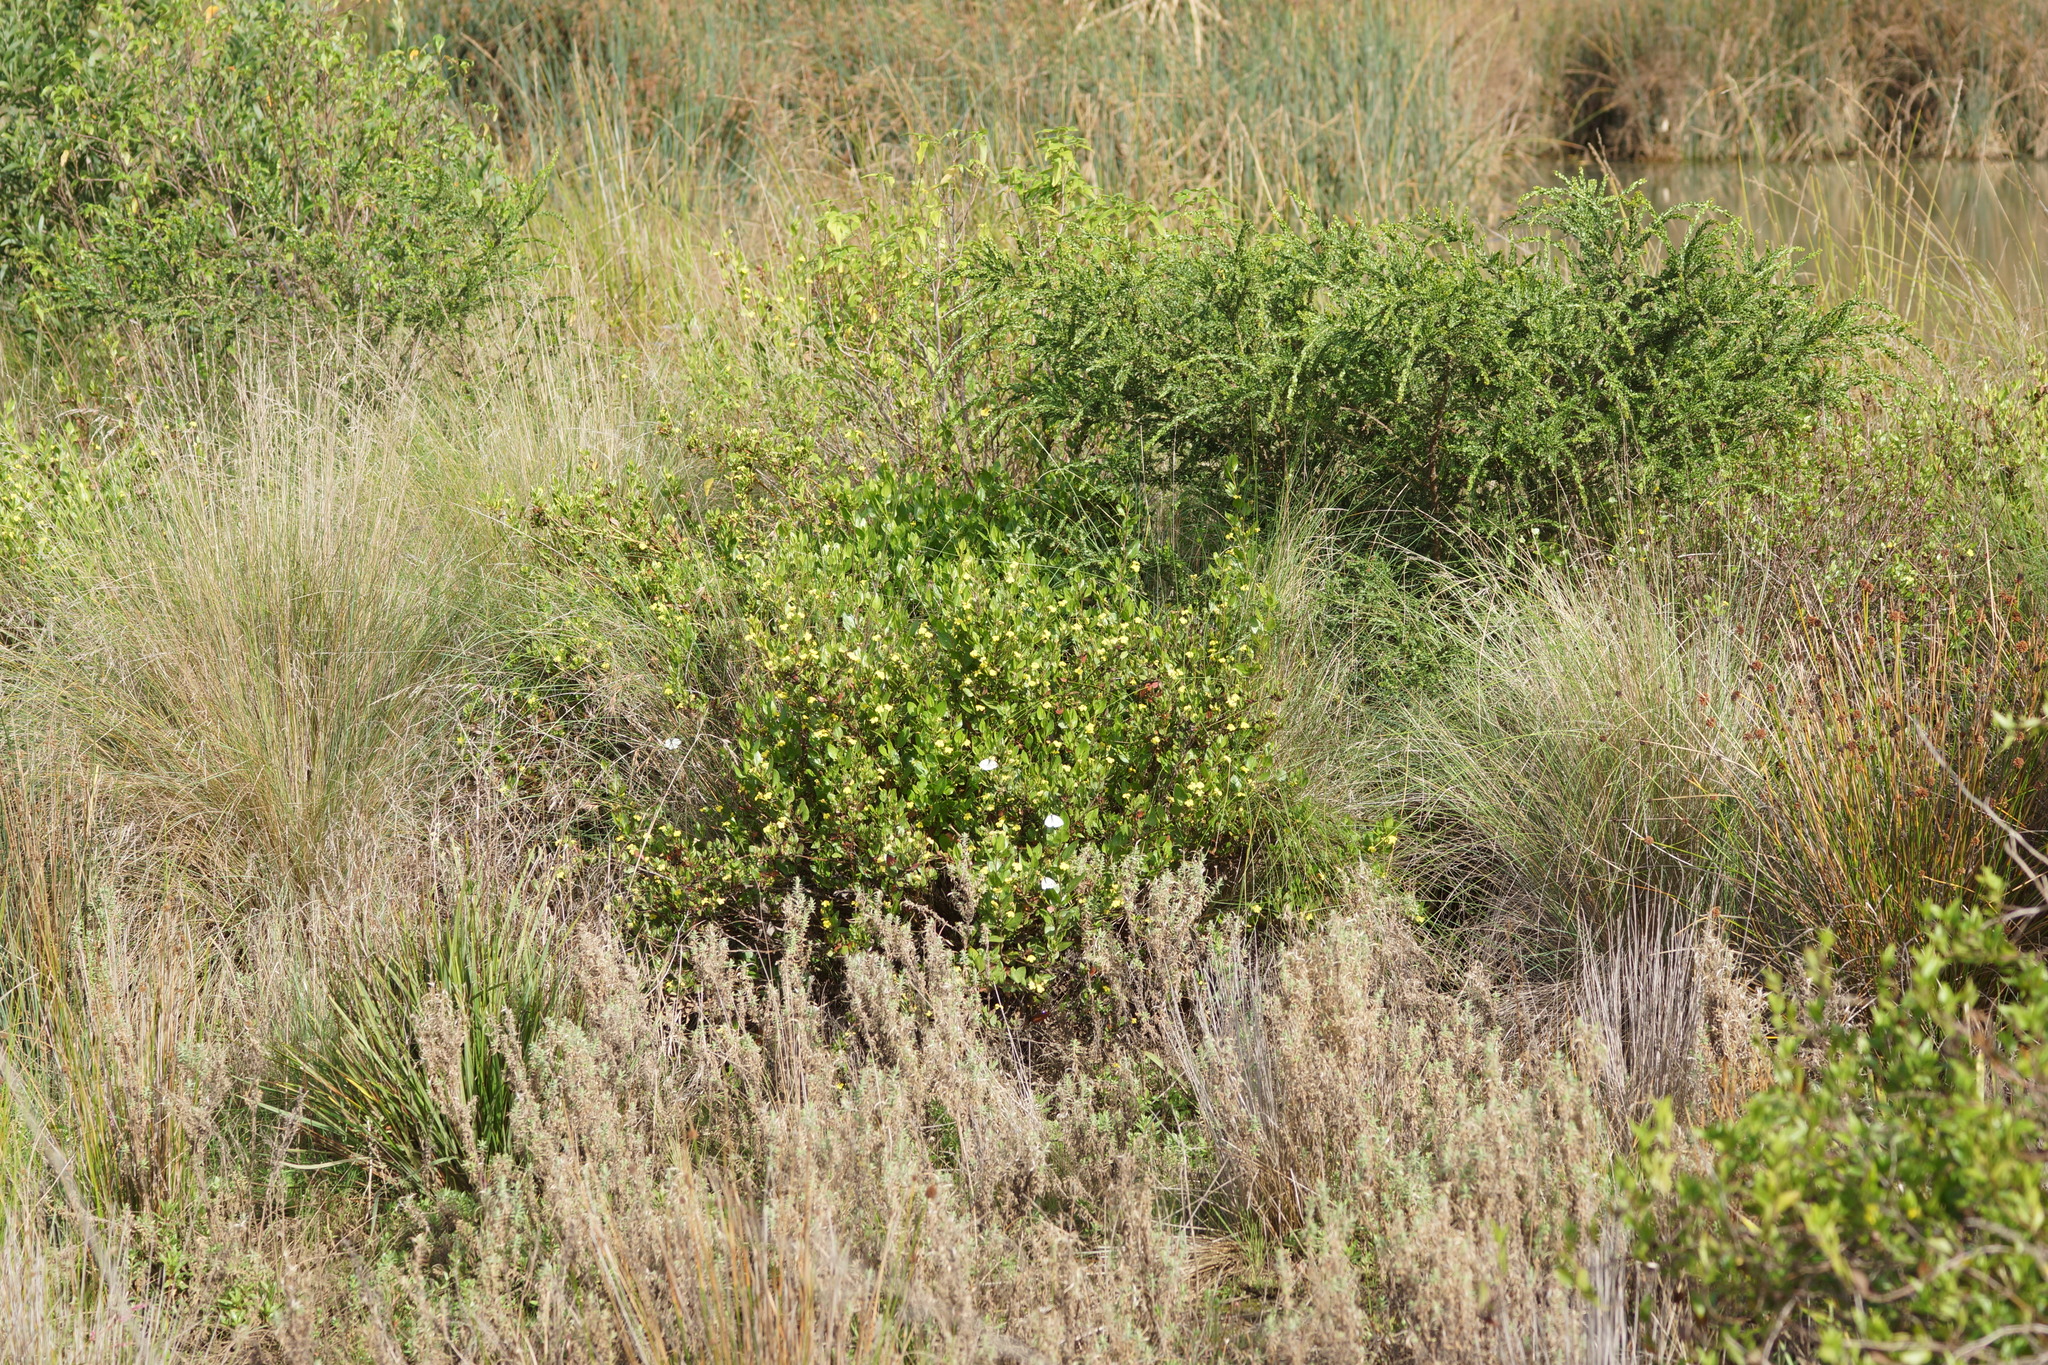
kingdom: Plantae
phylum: Tracheophyta
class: Magnoliopsida
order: Asterales
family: Goodeniaceae
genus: Goodenia
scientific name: Goodenia ovata
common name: Hop goodenia
